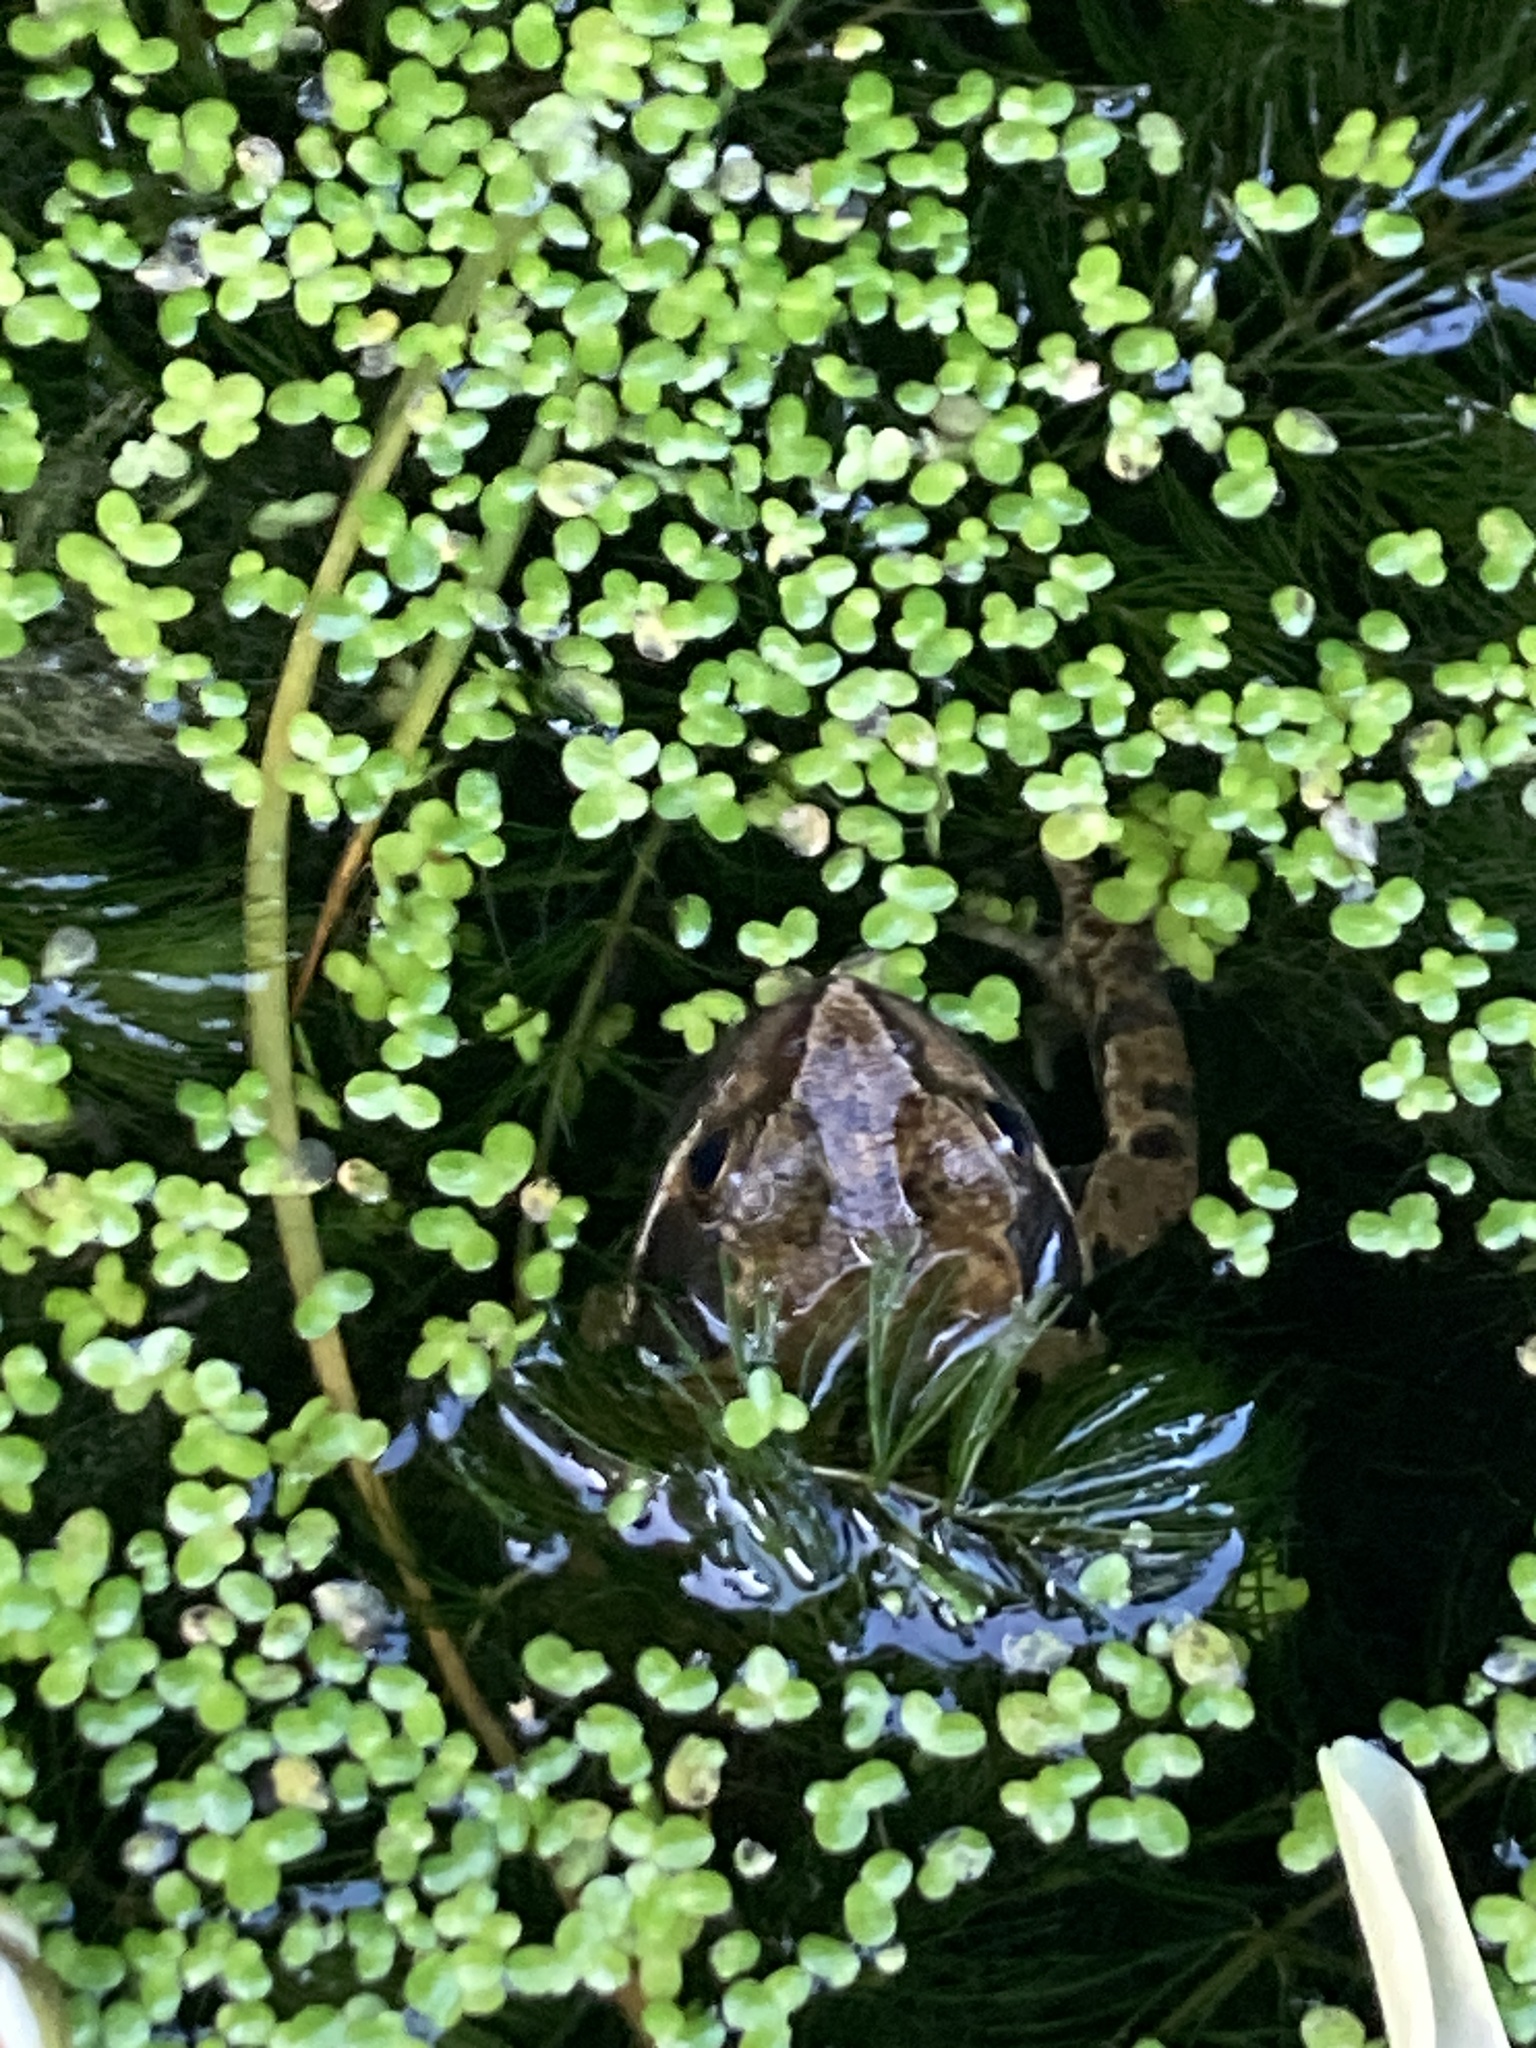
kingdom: Animalia
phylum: Chordata
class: Amphibia
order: Anura
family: Ranidae
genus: Rana
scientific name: Rana temporaria
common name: Common frog
